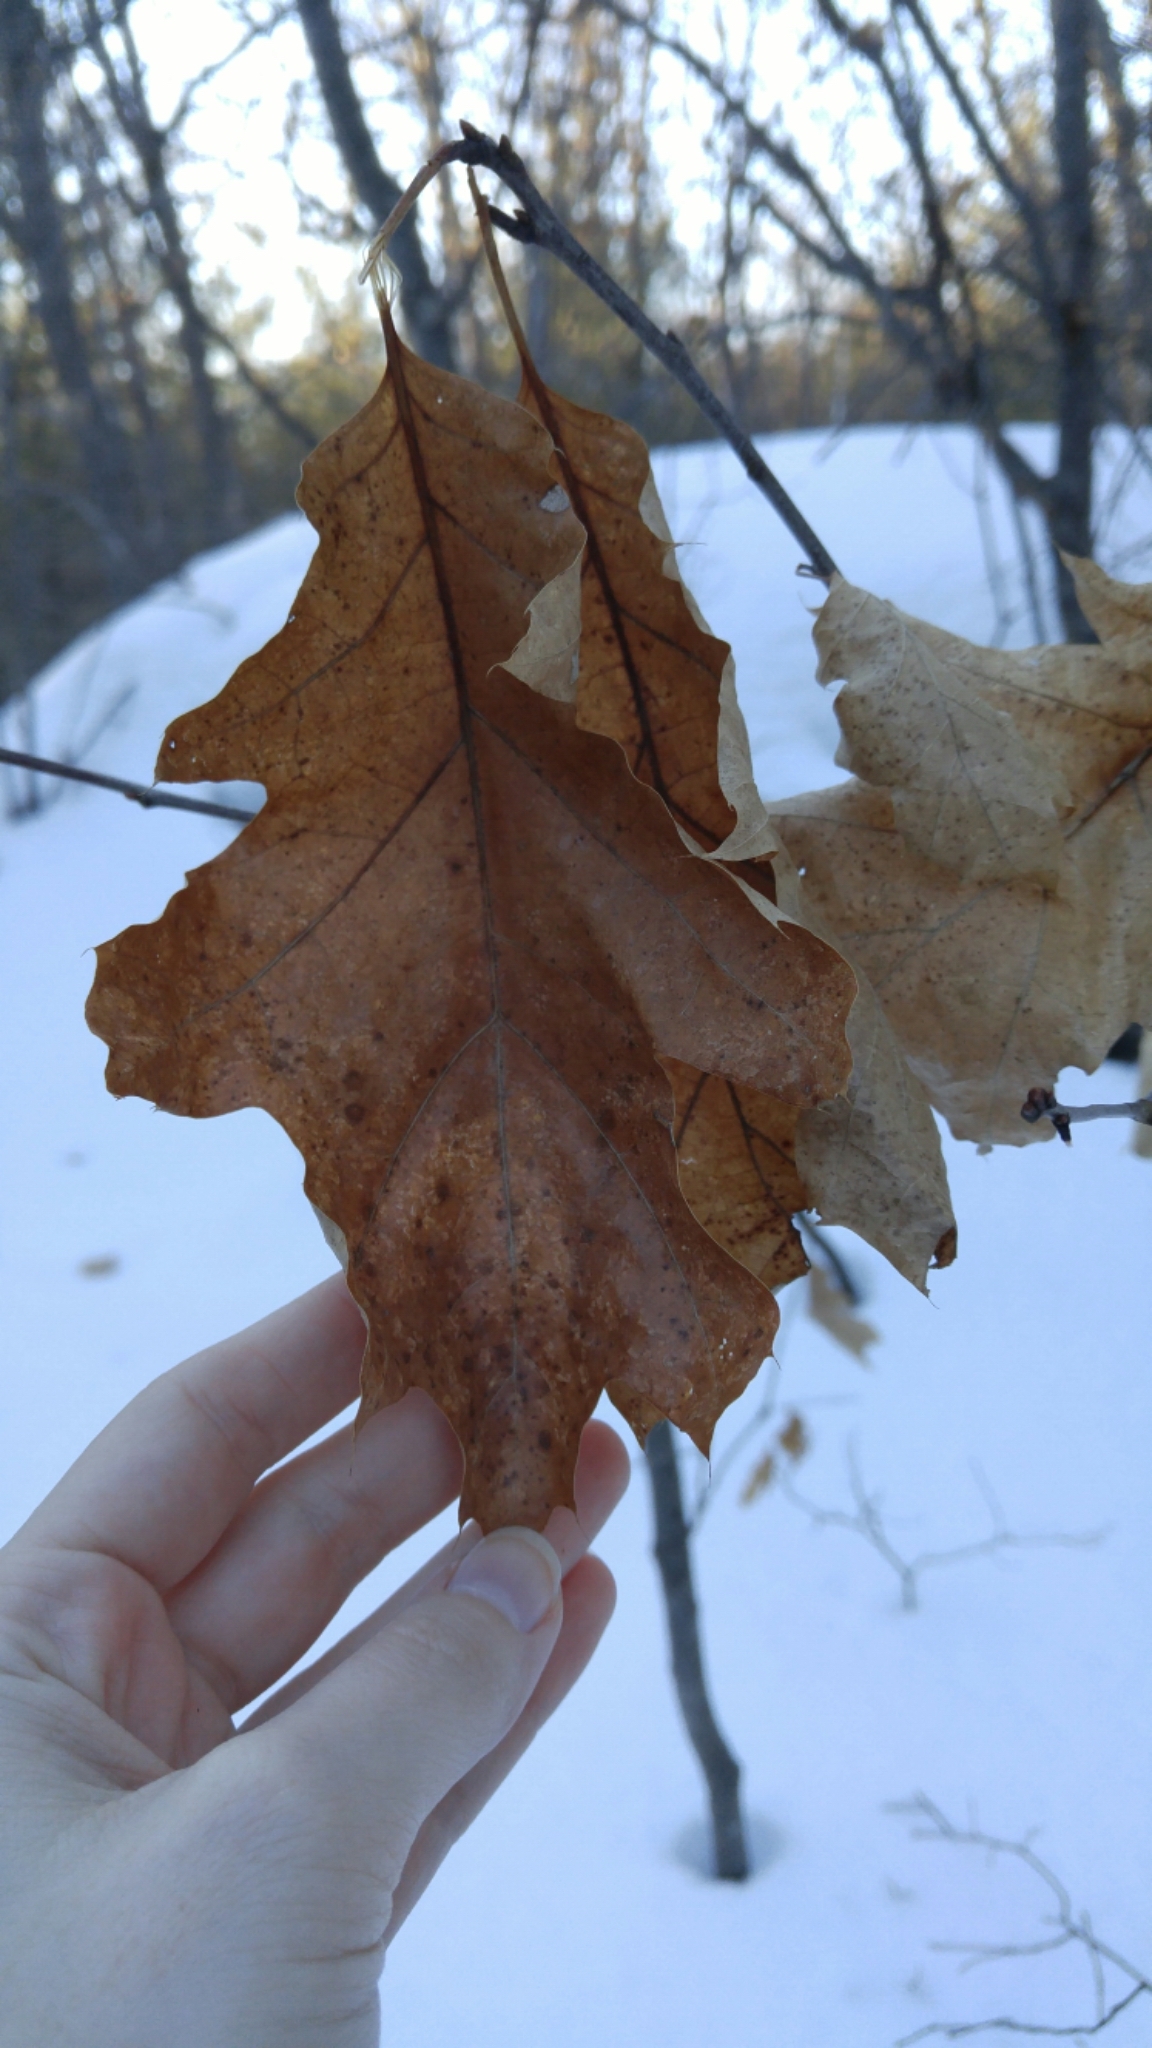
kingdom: Plantae
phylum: Tracheophyta
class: Magnoliopsida
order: Fagales
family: Fagaceae
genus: Quercus
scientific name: Quercus rubra
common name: Red oak
